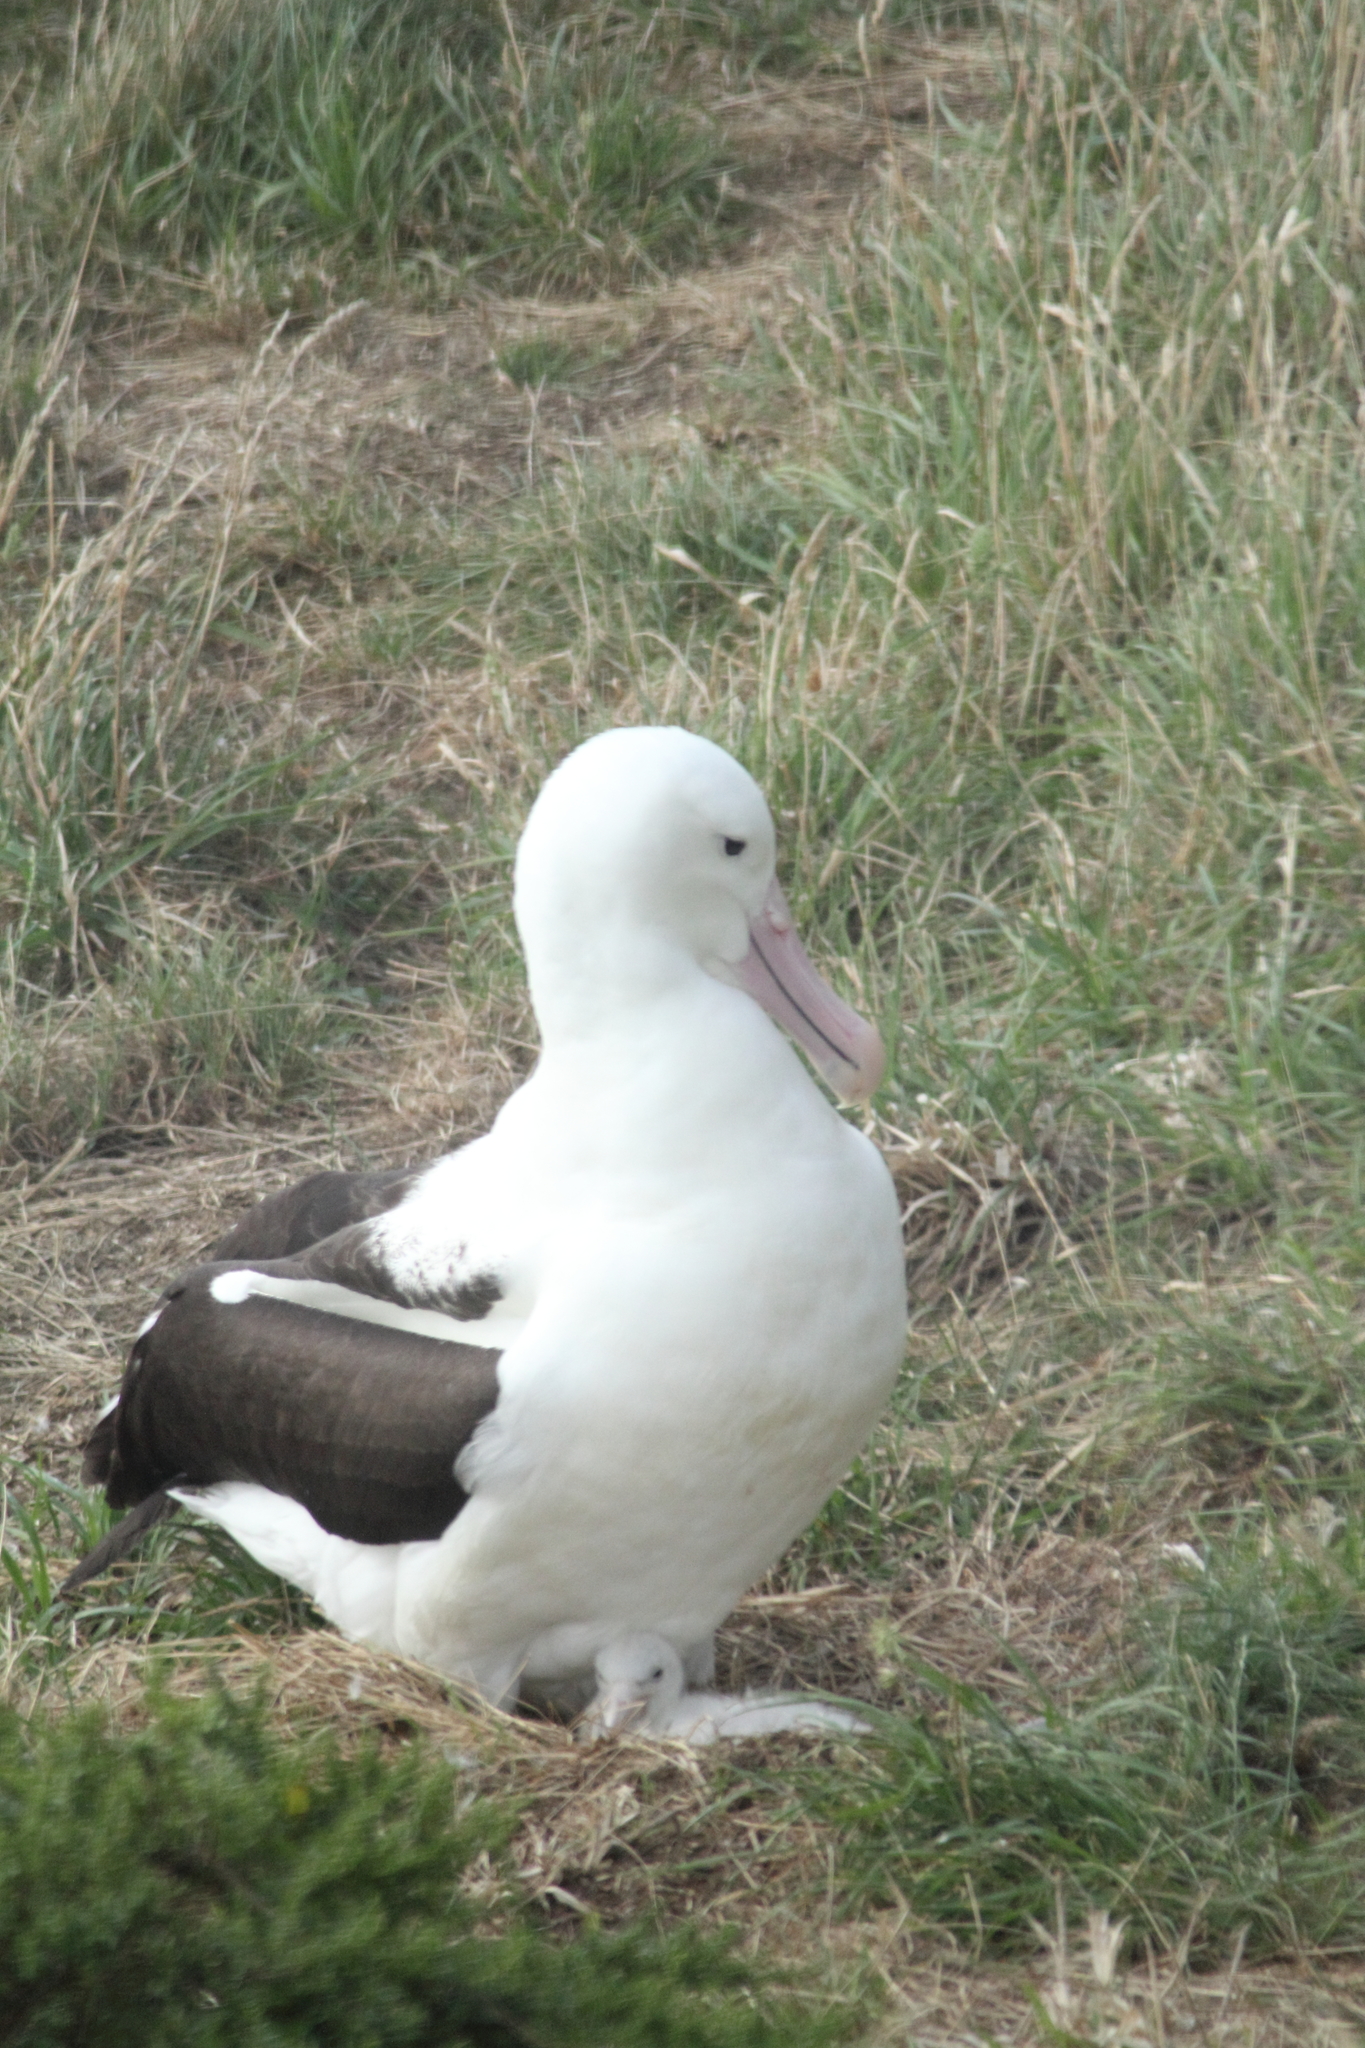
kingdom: Animalia
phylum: Chordata
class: Aves
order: Procellariiformes
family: Diomedeidae
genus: Diomedea
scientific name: Diomedea sanfordi
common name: Northern royal albatross
